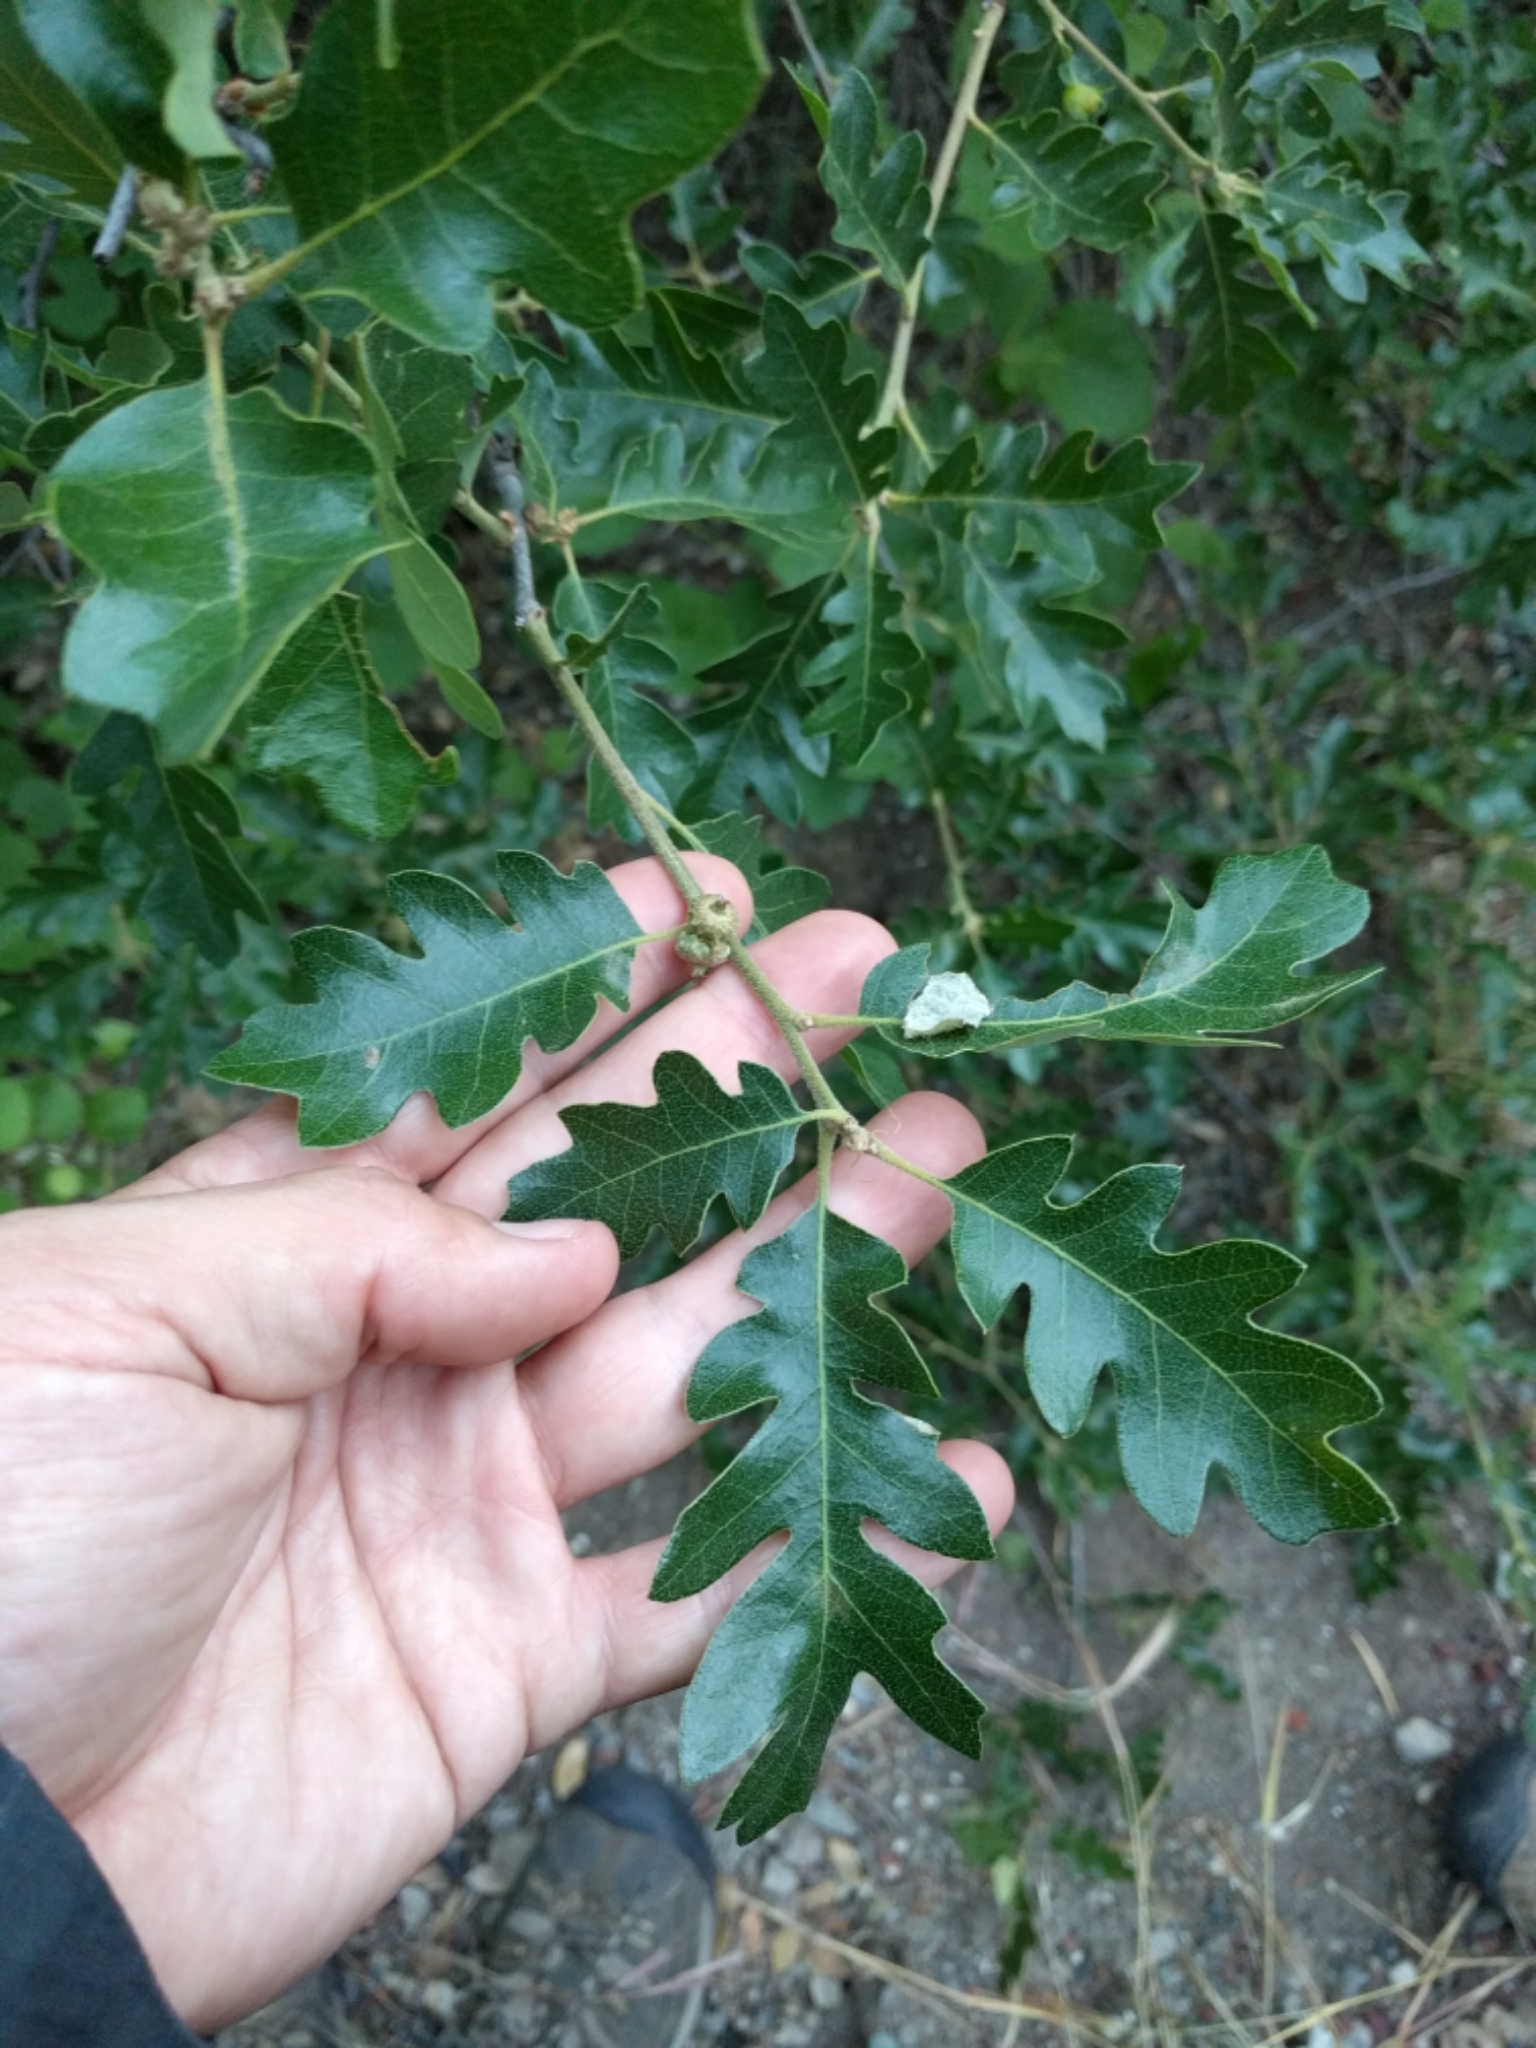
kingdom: Plantae
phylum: Tracheophyta
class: Magnoliopsida
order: Fagales
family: Fagaceae
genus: Quercus
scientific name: Quercus garryana
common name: Garry oak
